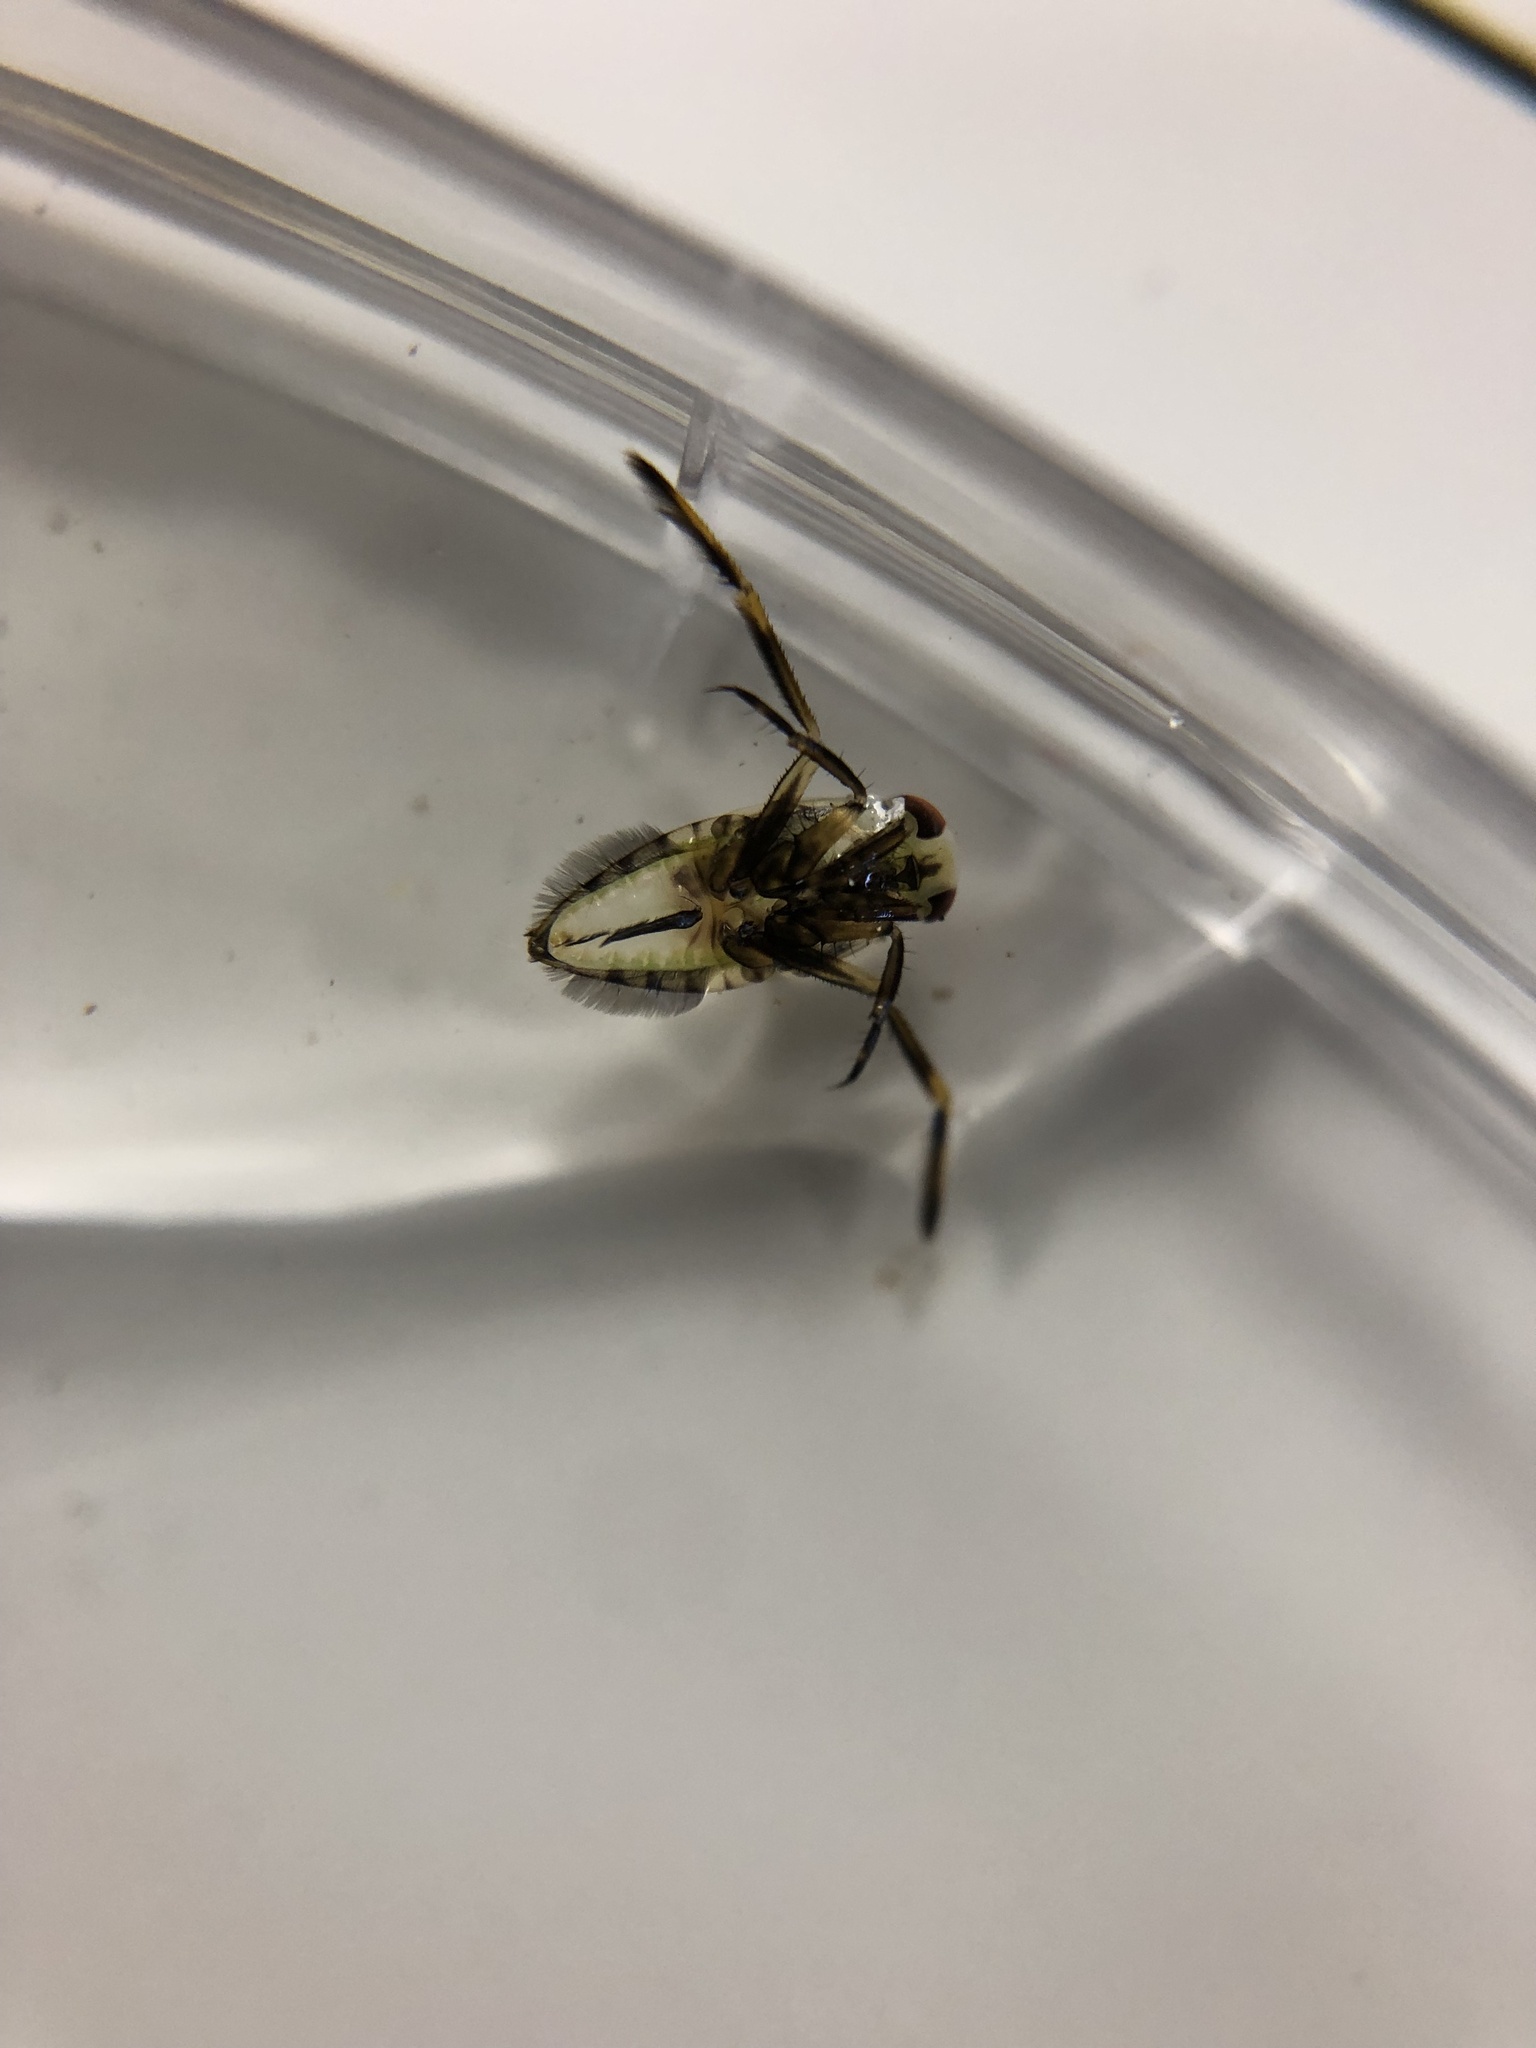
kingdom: Animalia
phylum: Arthropoda
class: Insecta
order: Hemiptera
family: Notonectidae
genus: Notonecta
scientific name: Notonecta
